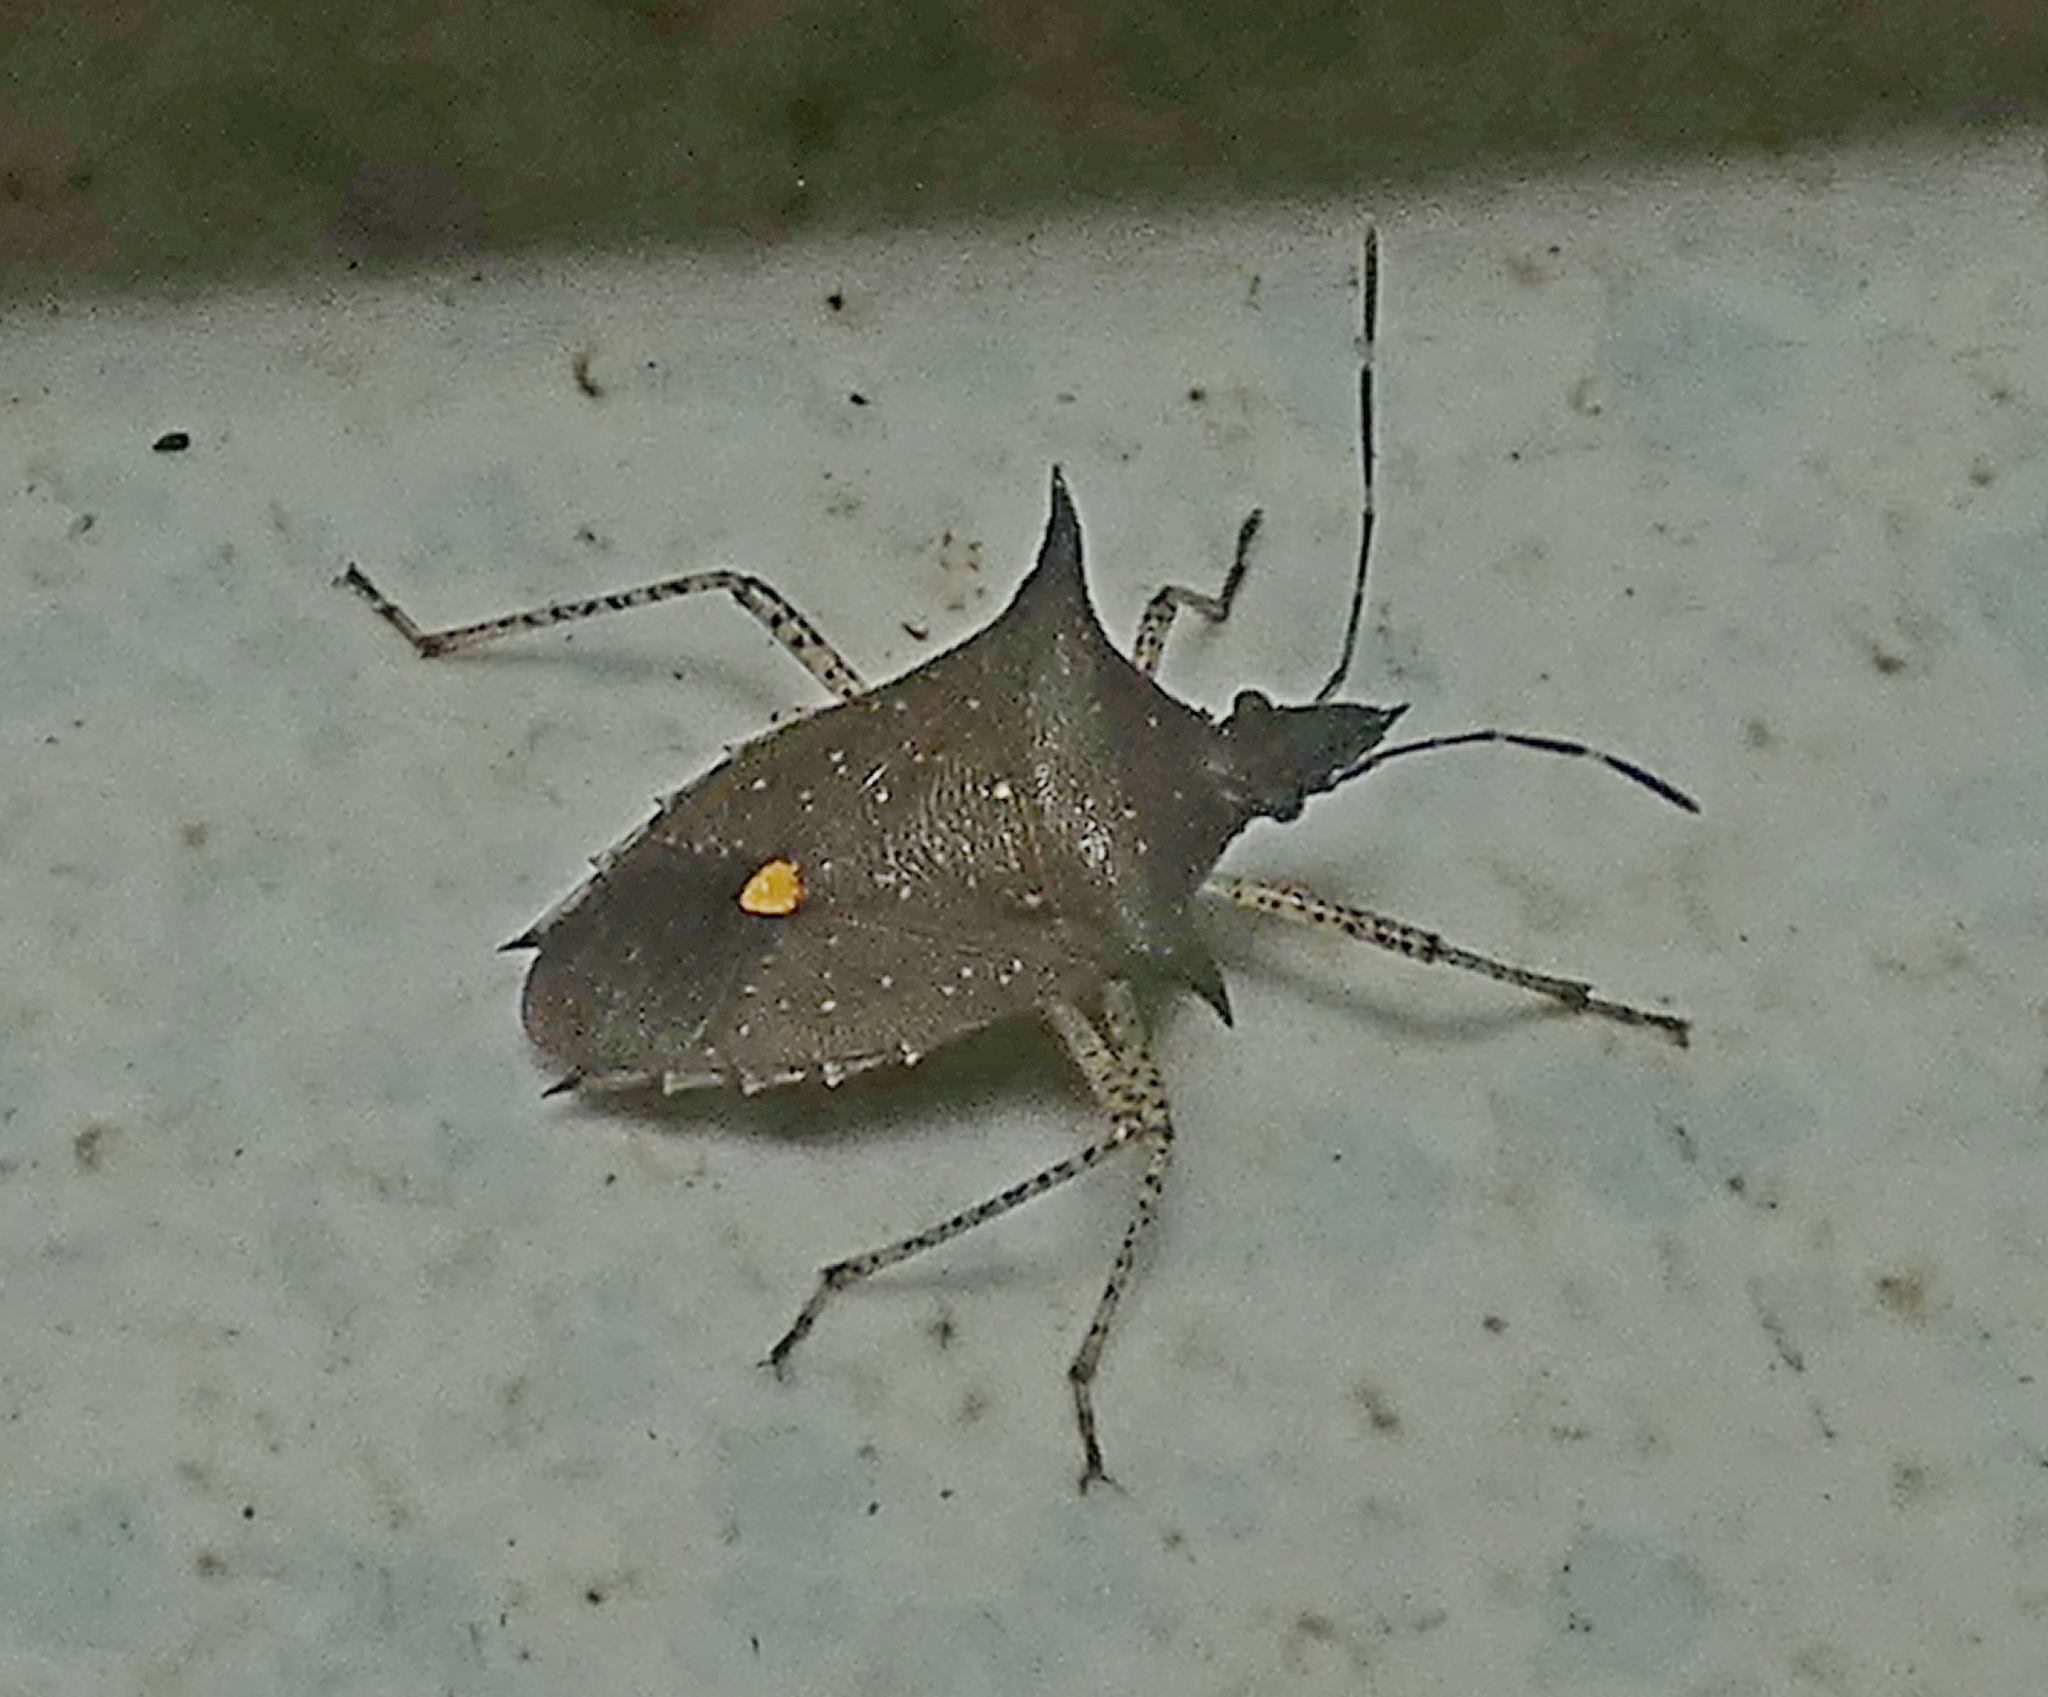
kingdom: Animalia
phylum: Arthropoda
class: Insecta
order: Hemiptera
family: Pentatomidae
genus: Proxys
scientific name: Proxys albopunctulatus
